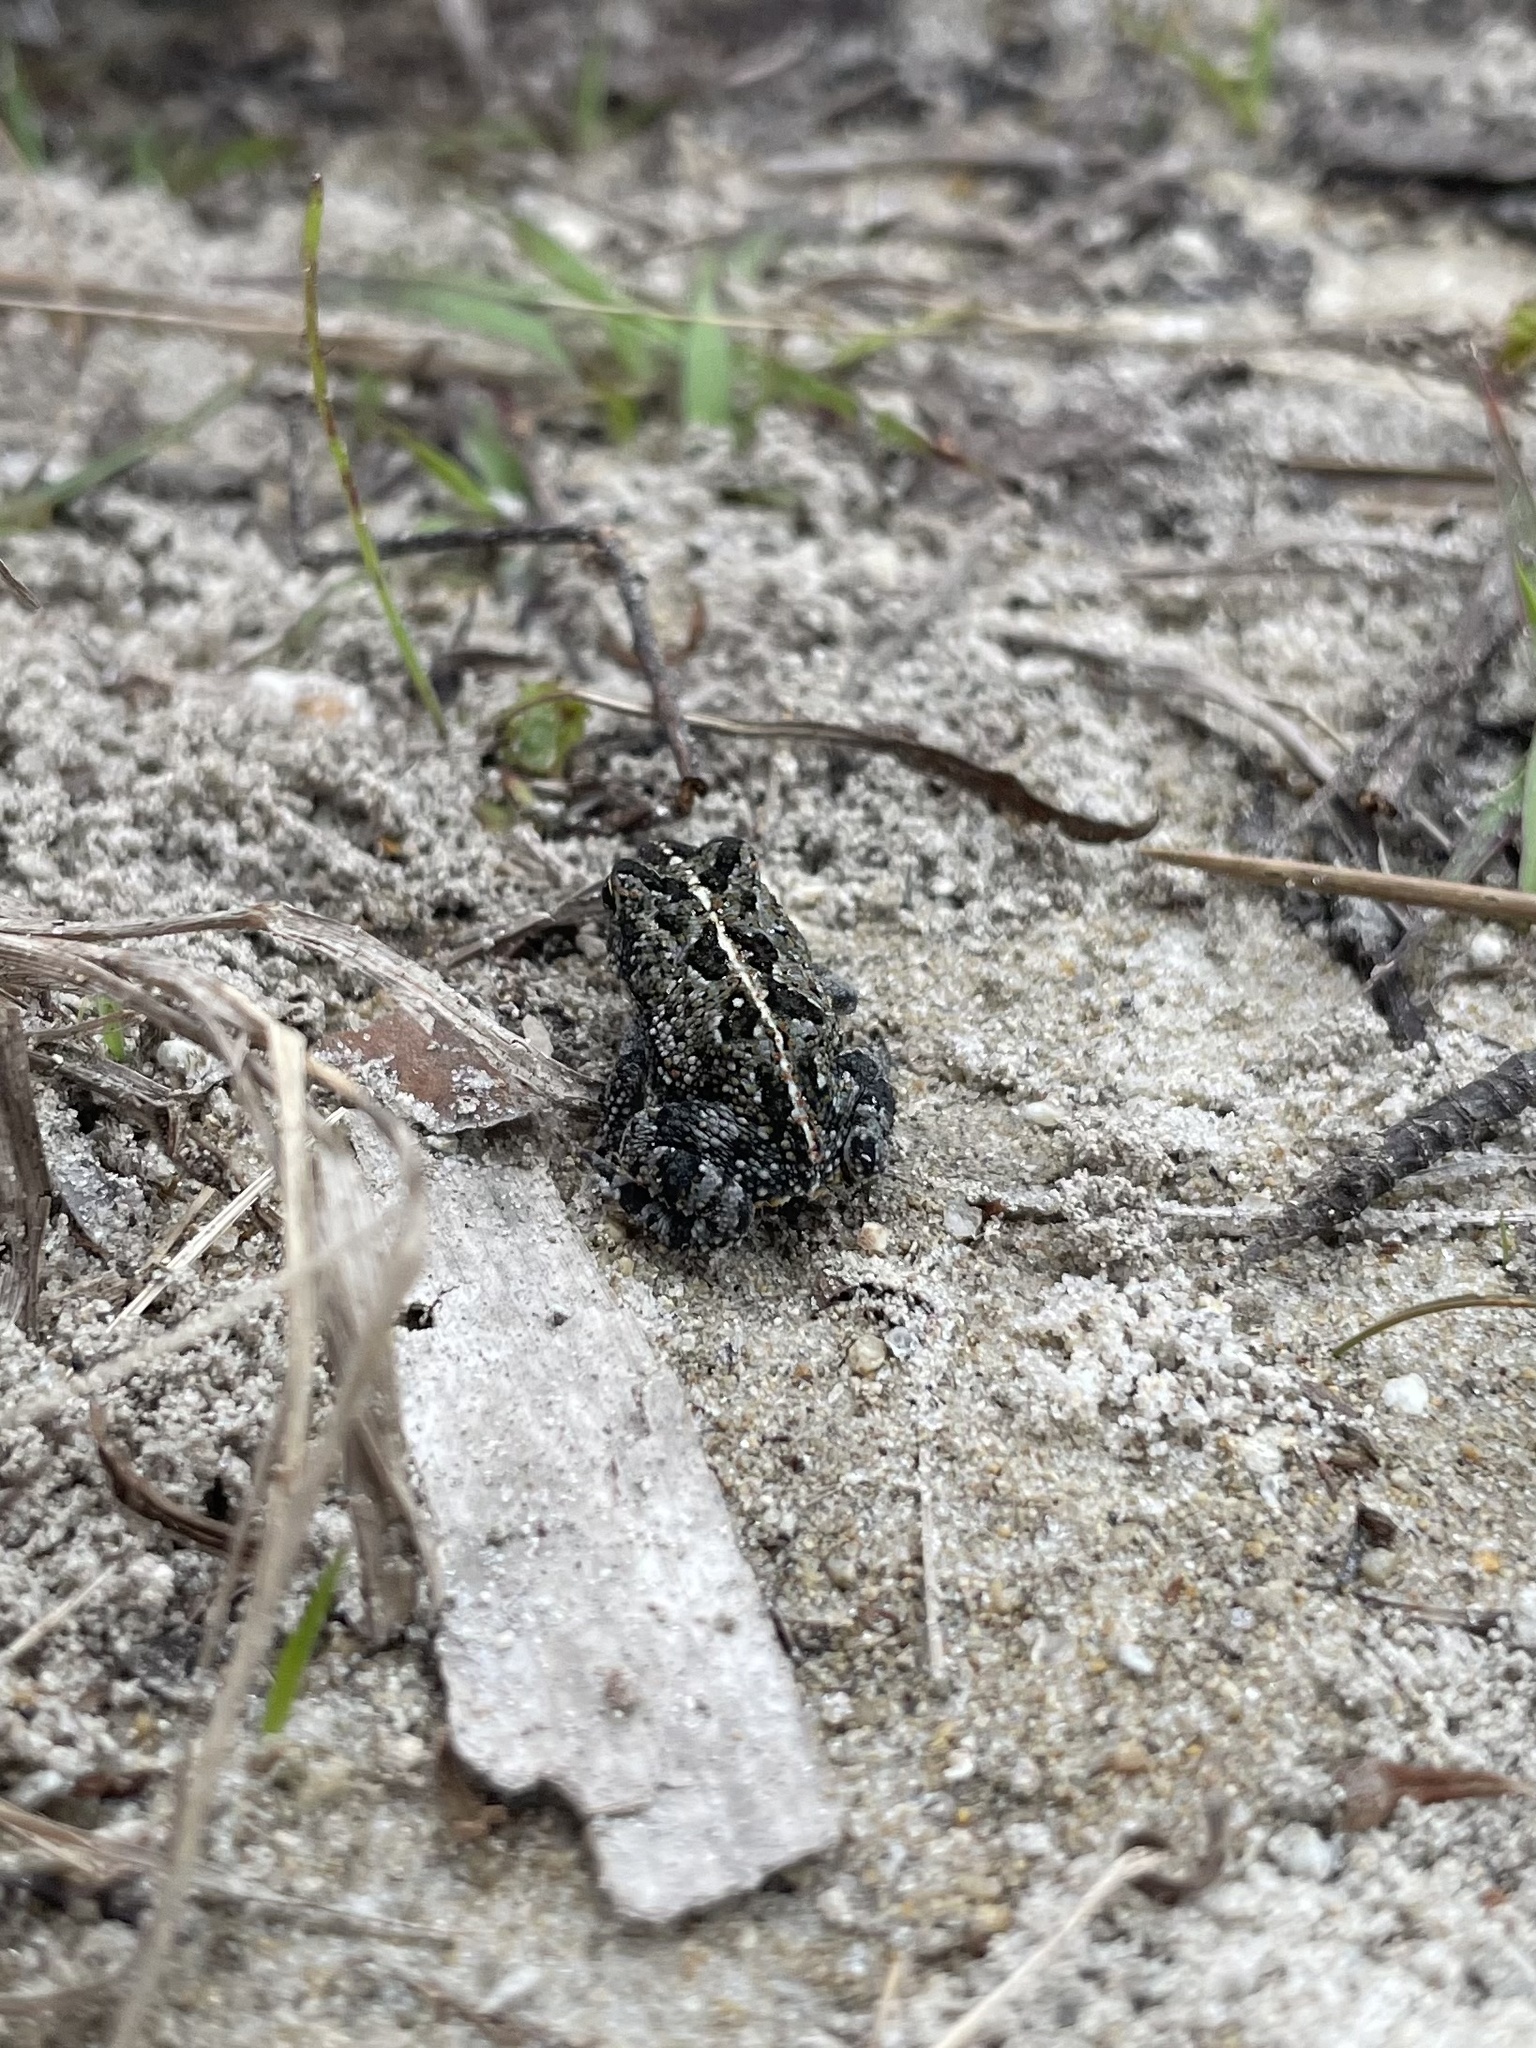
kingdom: Animalia
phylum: Chordata
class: Amphibia
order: Anura
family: Bufonidae
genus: Anaxyrus
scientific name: Anaxyrus quercicus
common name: Oak toad
